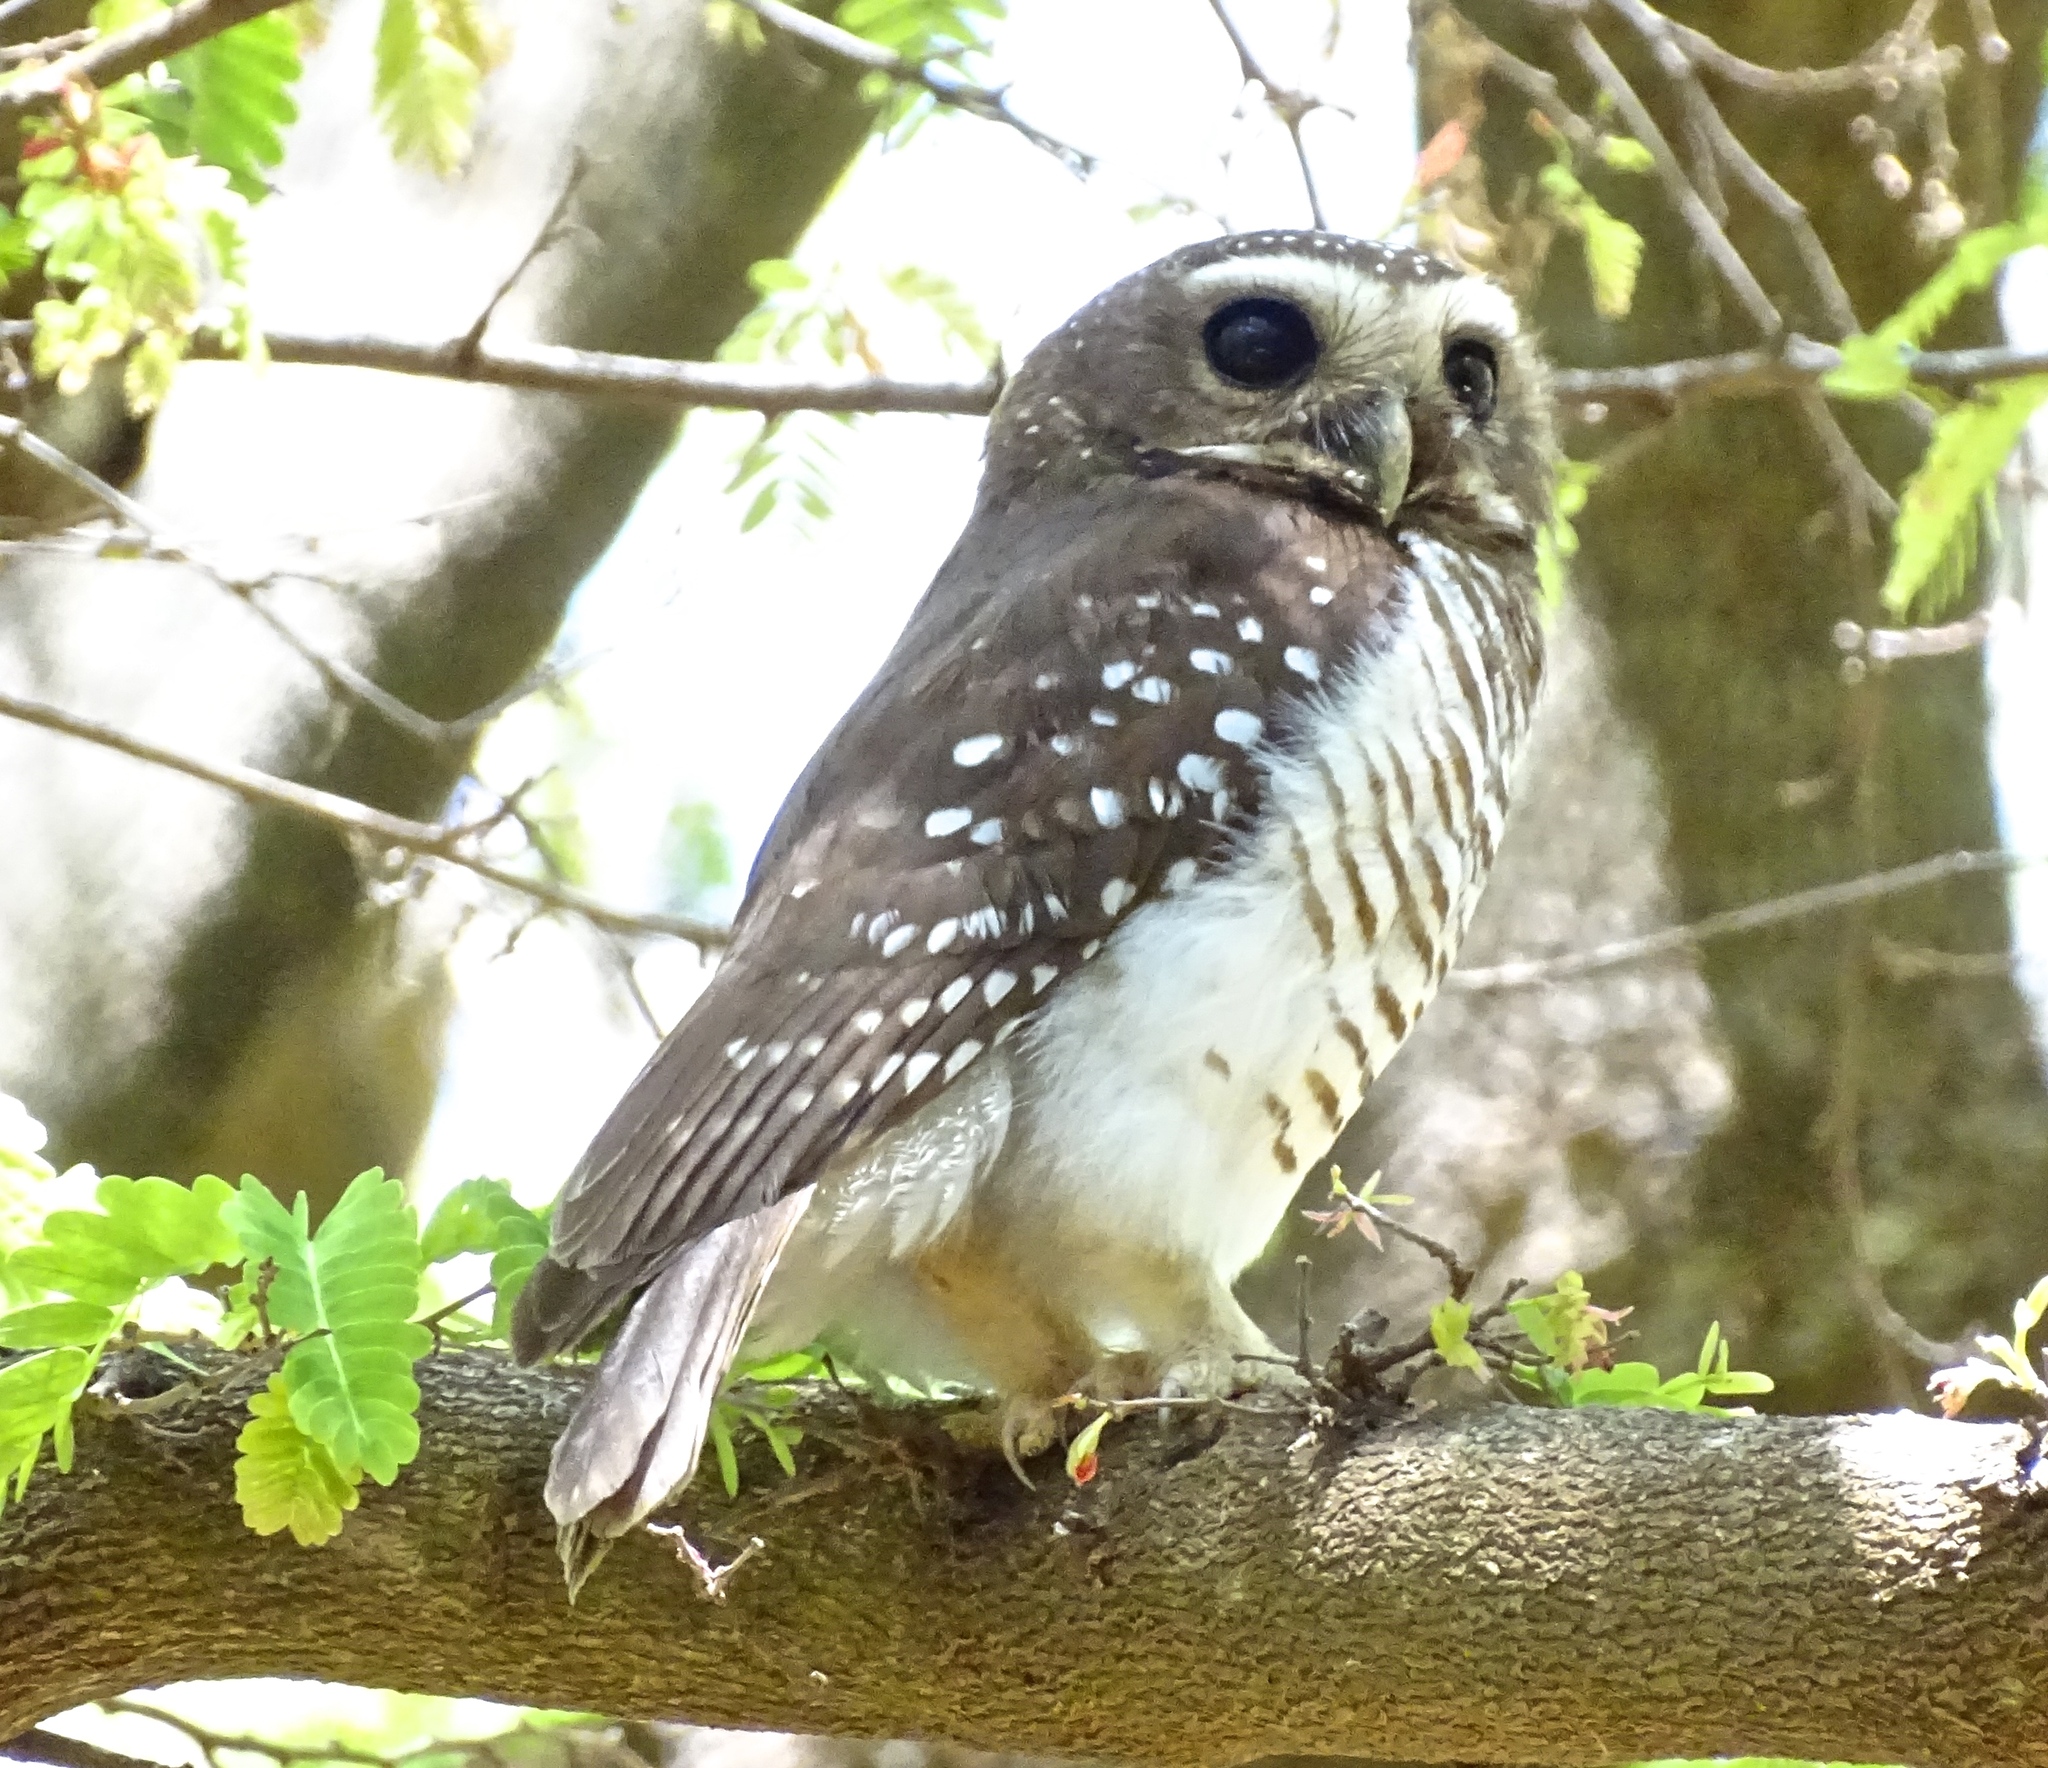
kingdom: Animalia
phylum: Chordata
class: Aves
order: Strigiformes
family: Strigidae
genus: Ninox
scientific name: Ninox superciliaris
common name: White-browed hawk-owl
